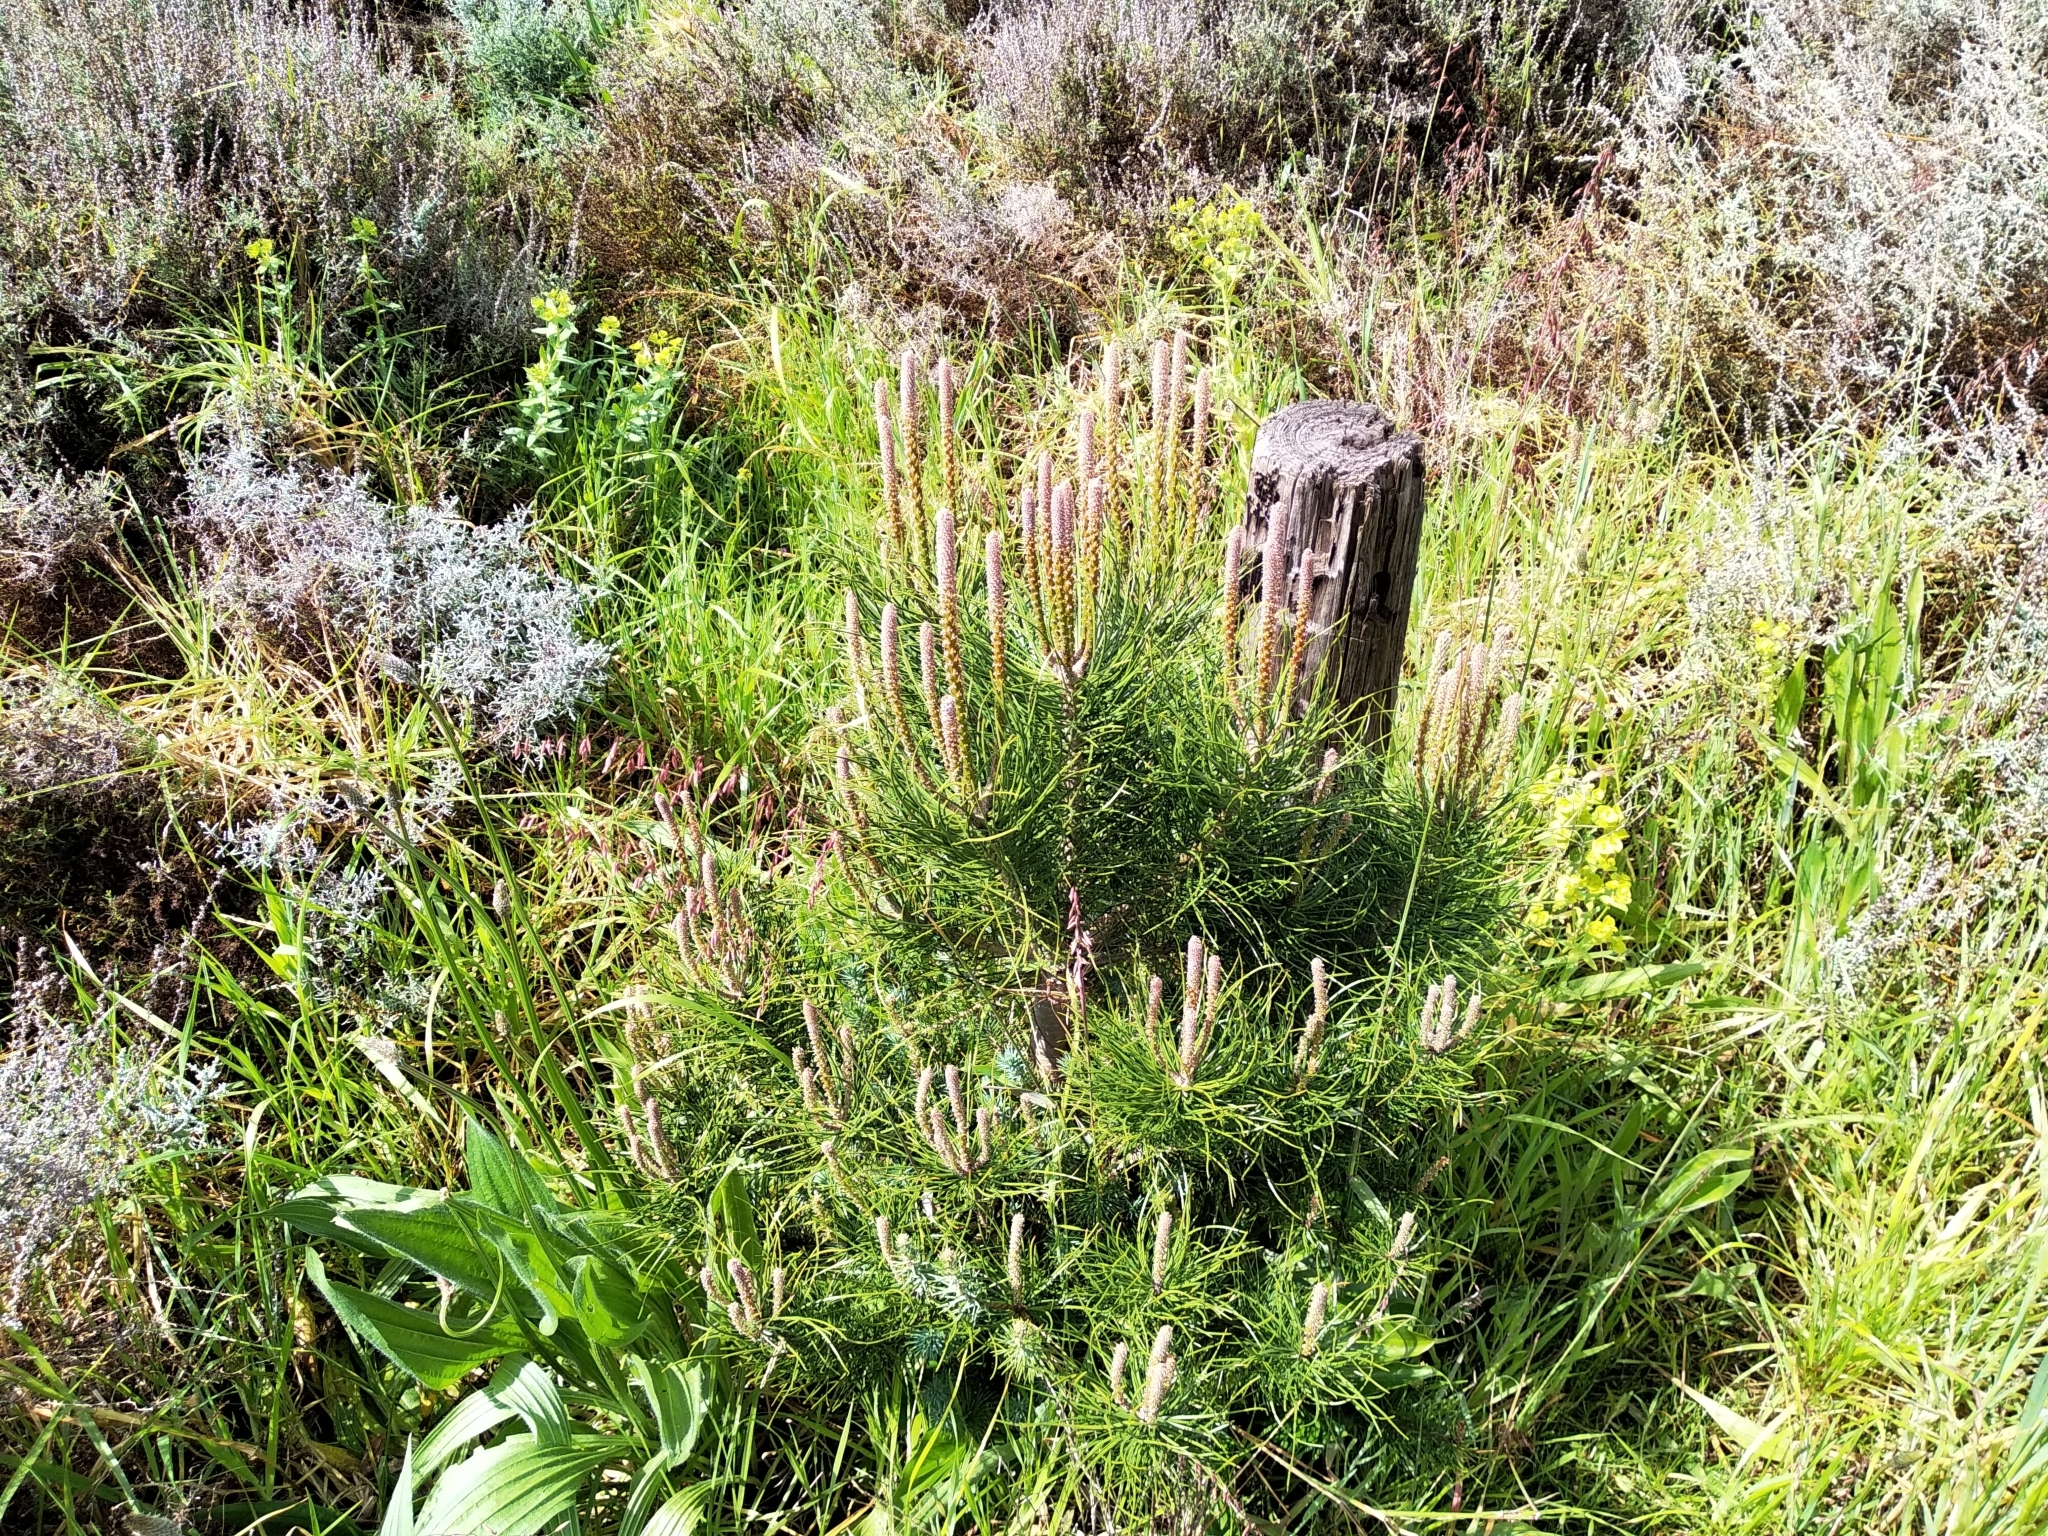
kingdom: Plantae
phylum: Tracheophyta
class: Pinopsida
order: Pinales
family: Pinaceae
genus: Pinus
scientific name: Pinus pinea
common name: Italian stone pine
